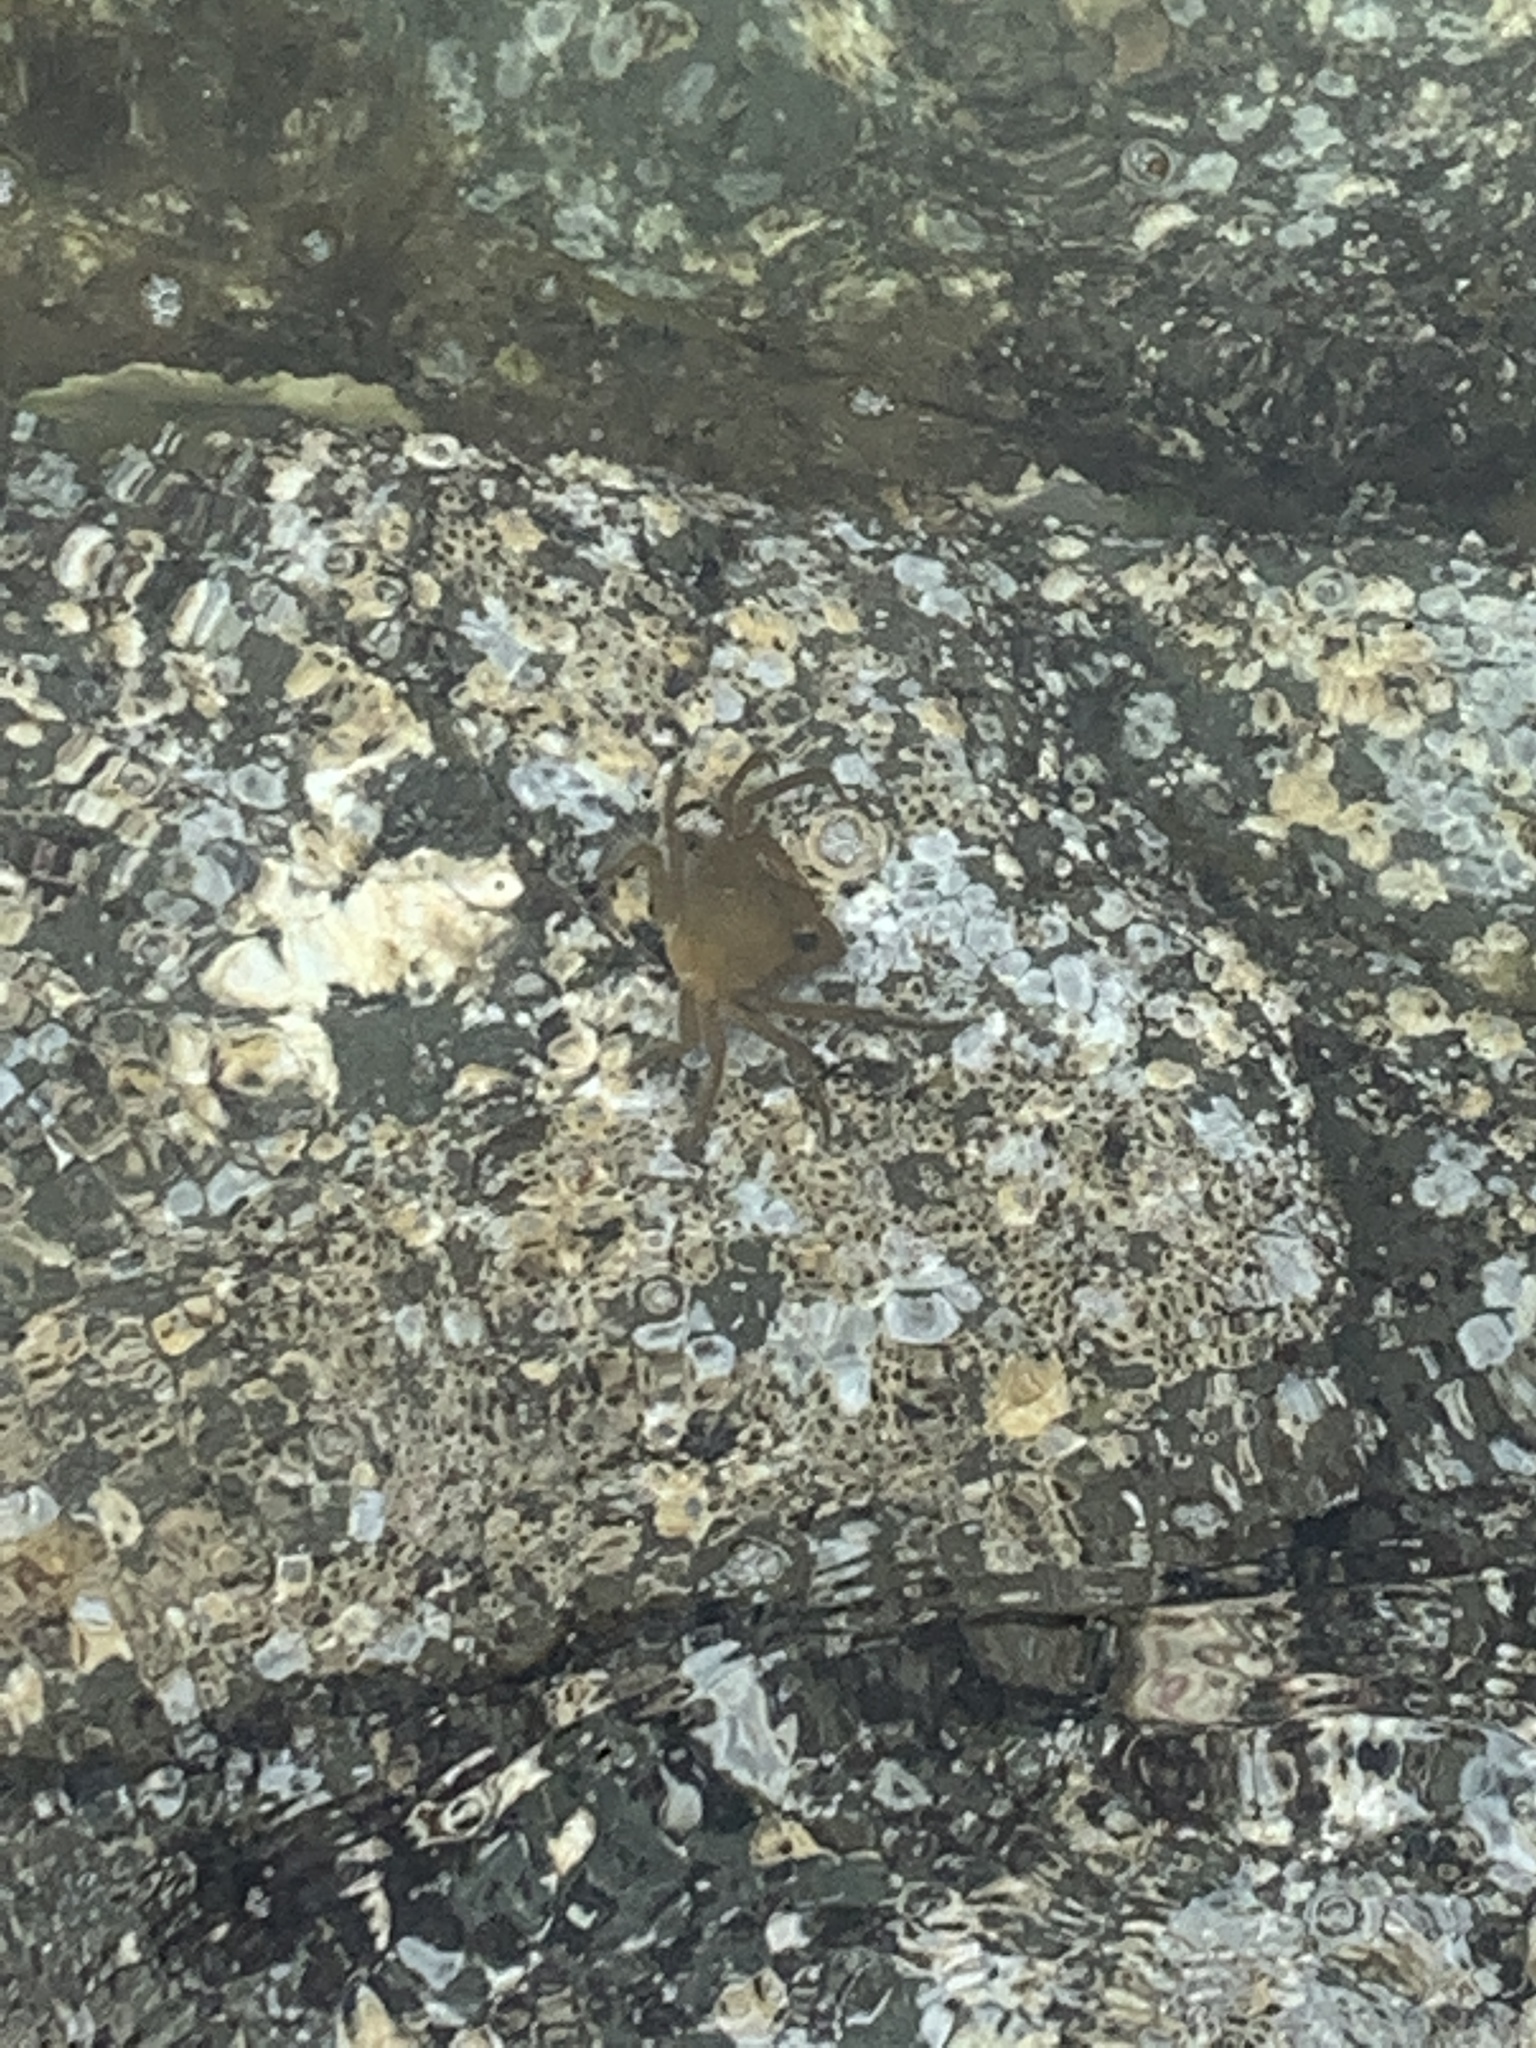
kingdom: Animalia
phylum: Arthropoda
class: Malacostraca
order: Decapoda
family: Epialtidae
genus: Pugettia
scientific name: Pugettia producta
